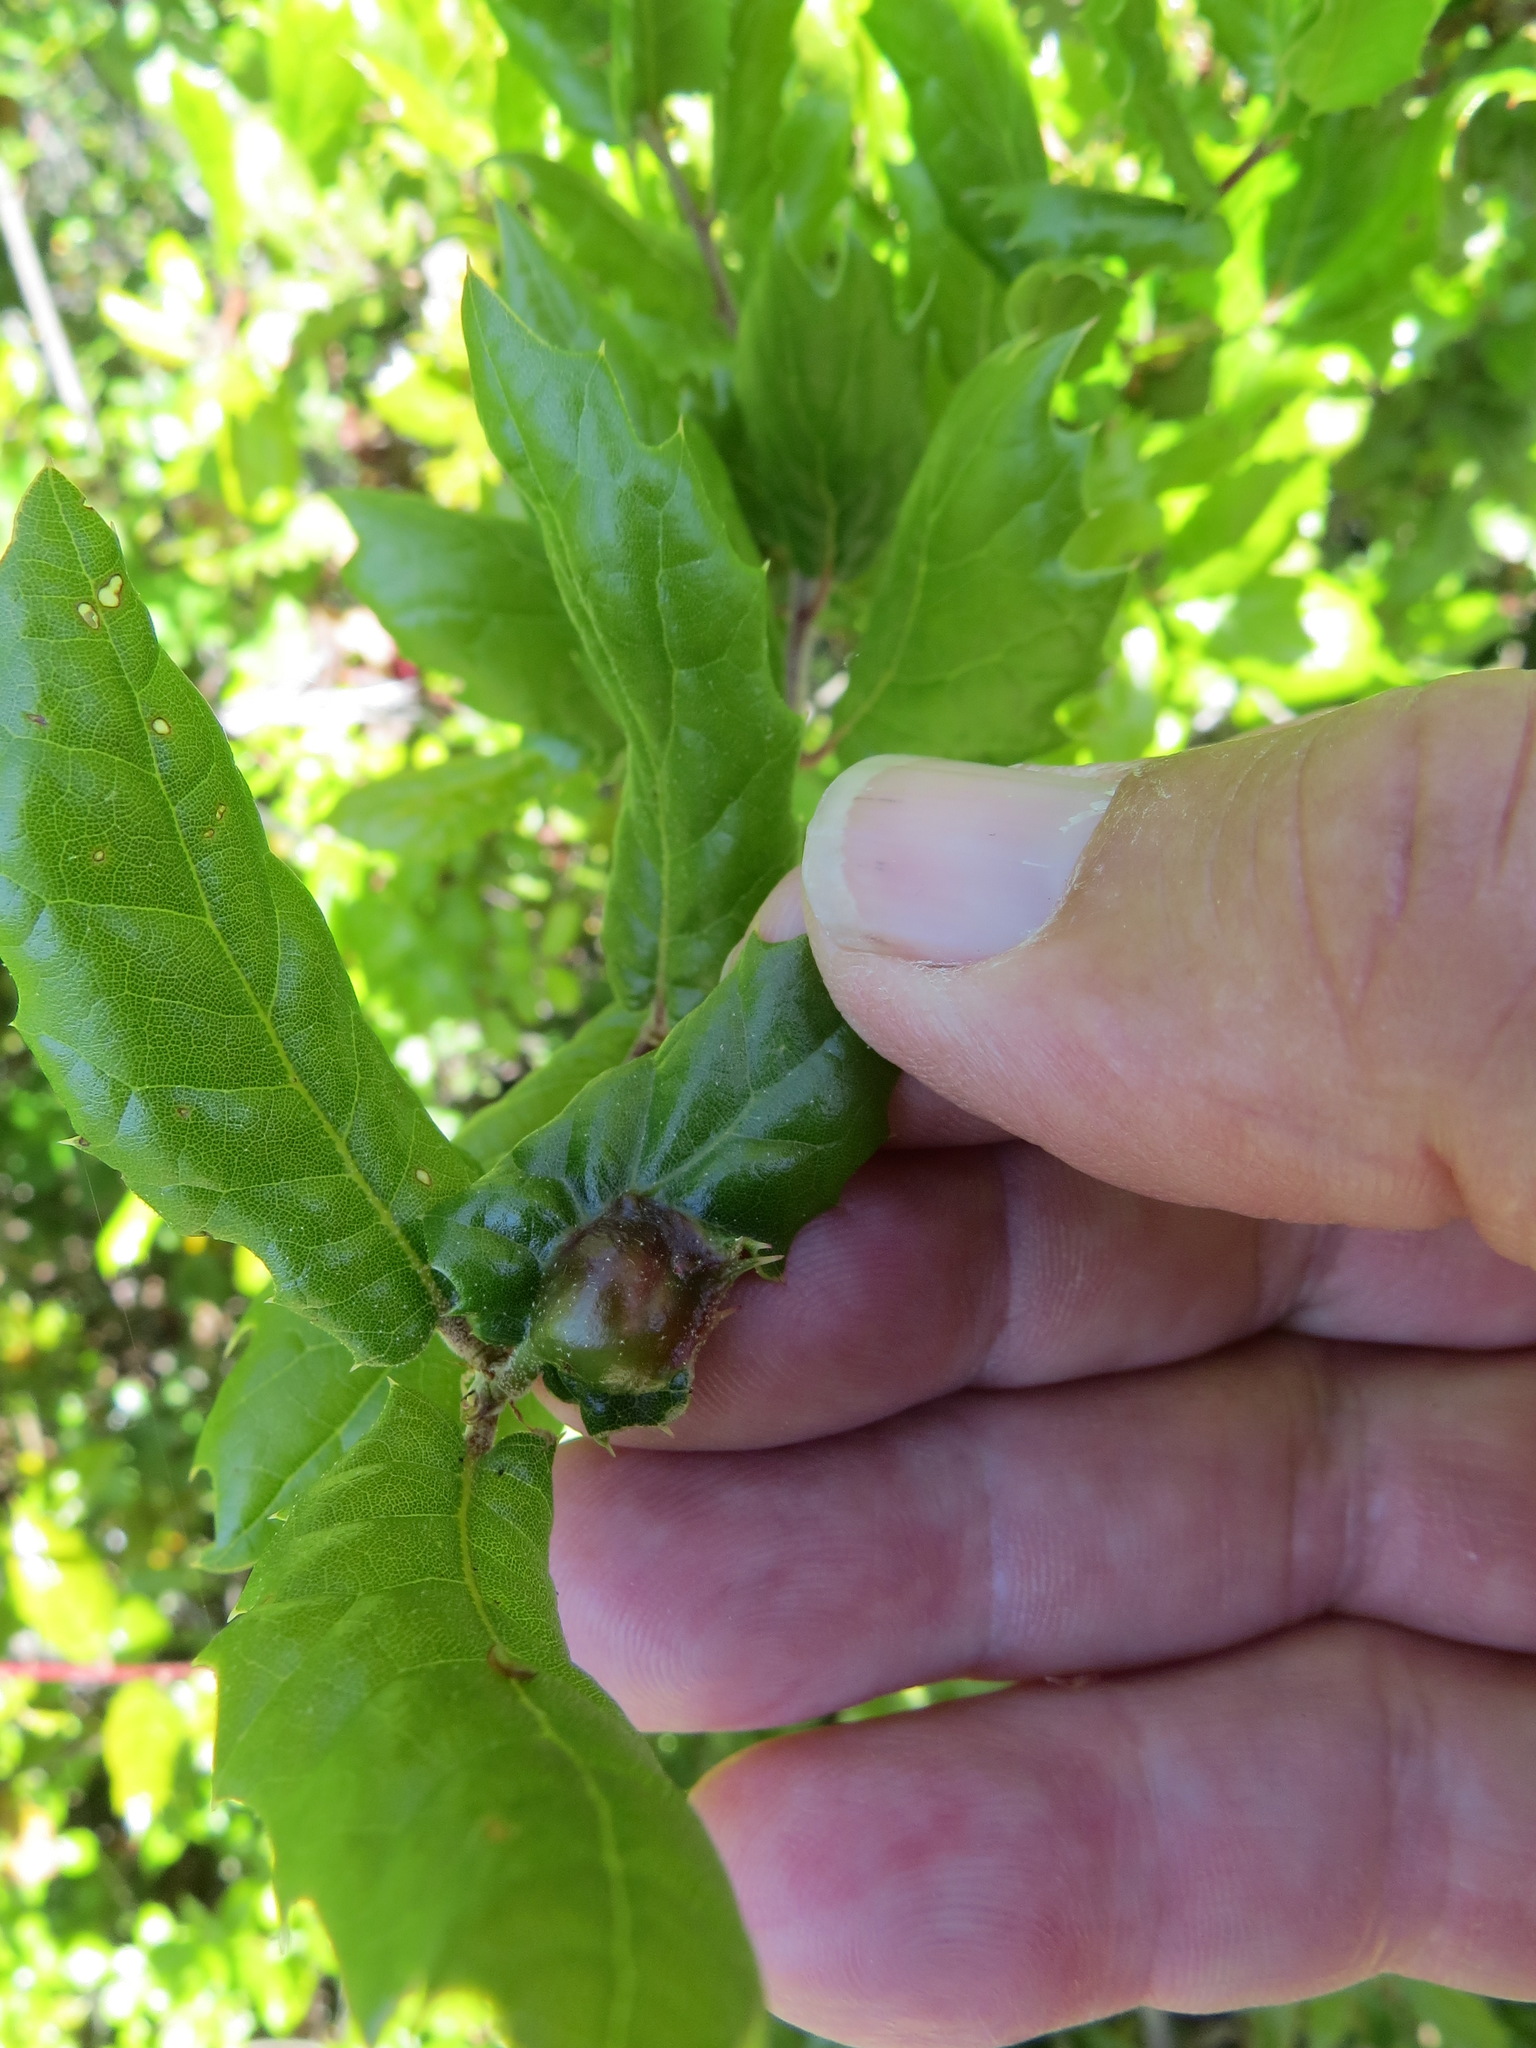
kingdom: Animalia
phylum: Arthropoda
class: Insecta
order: Hymenoptera
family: Cynipidae
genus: Callirhytis
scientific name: Callirhytis
